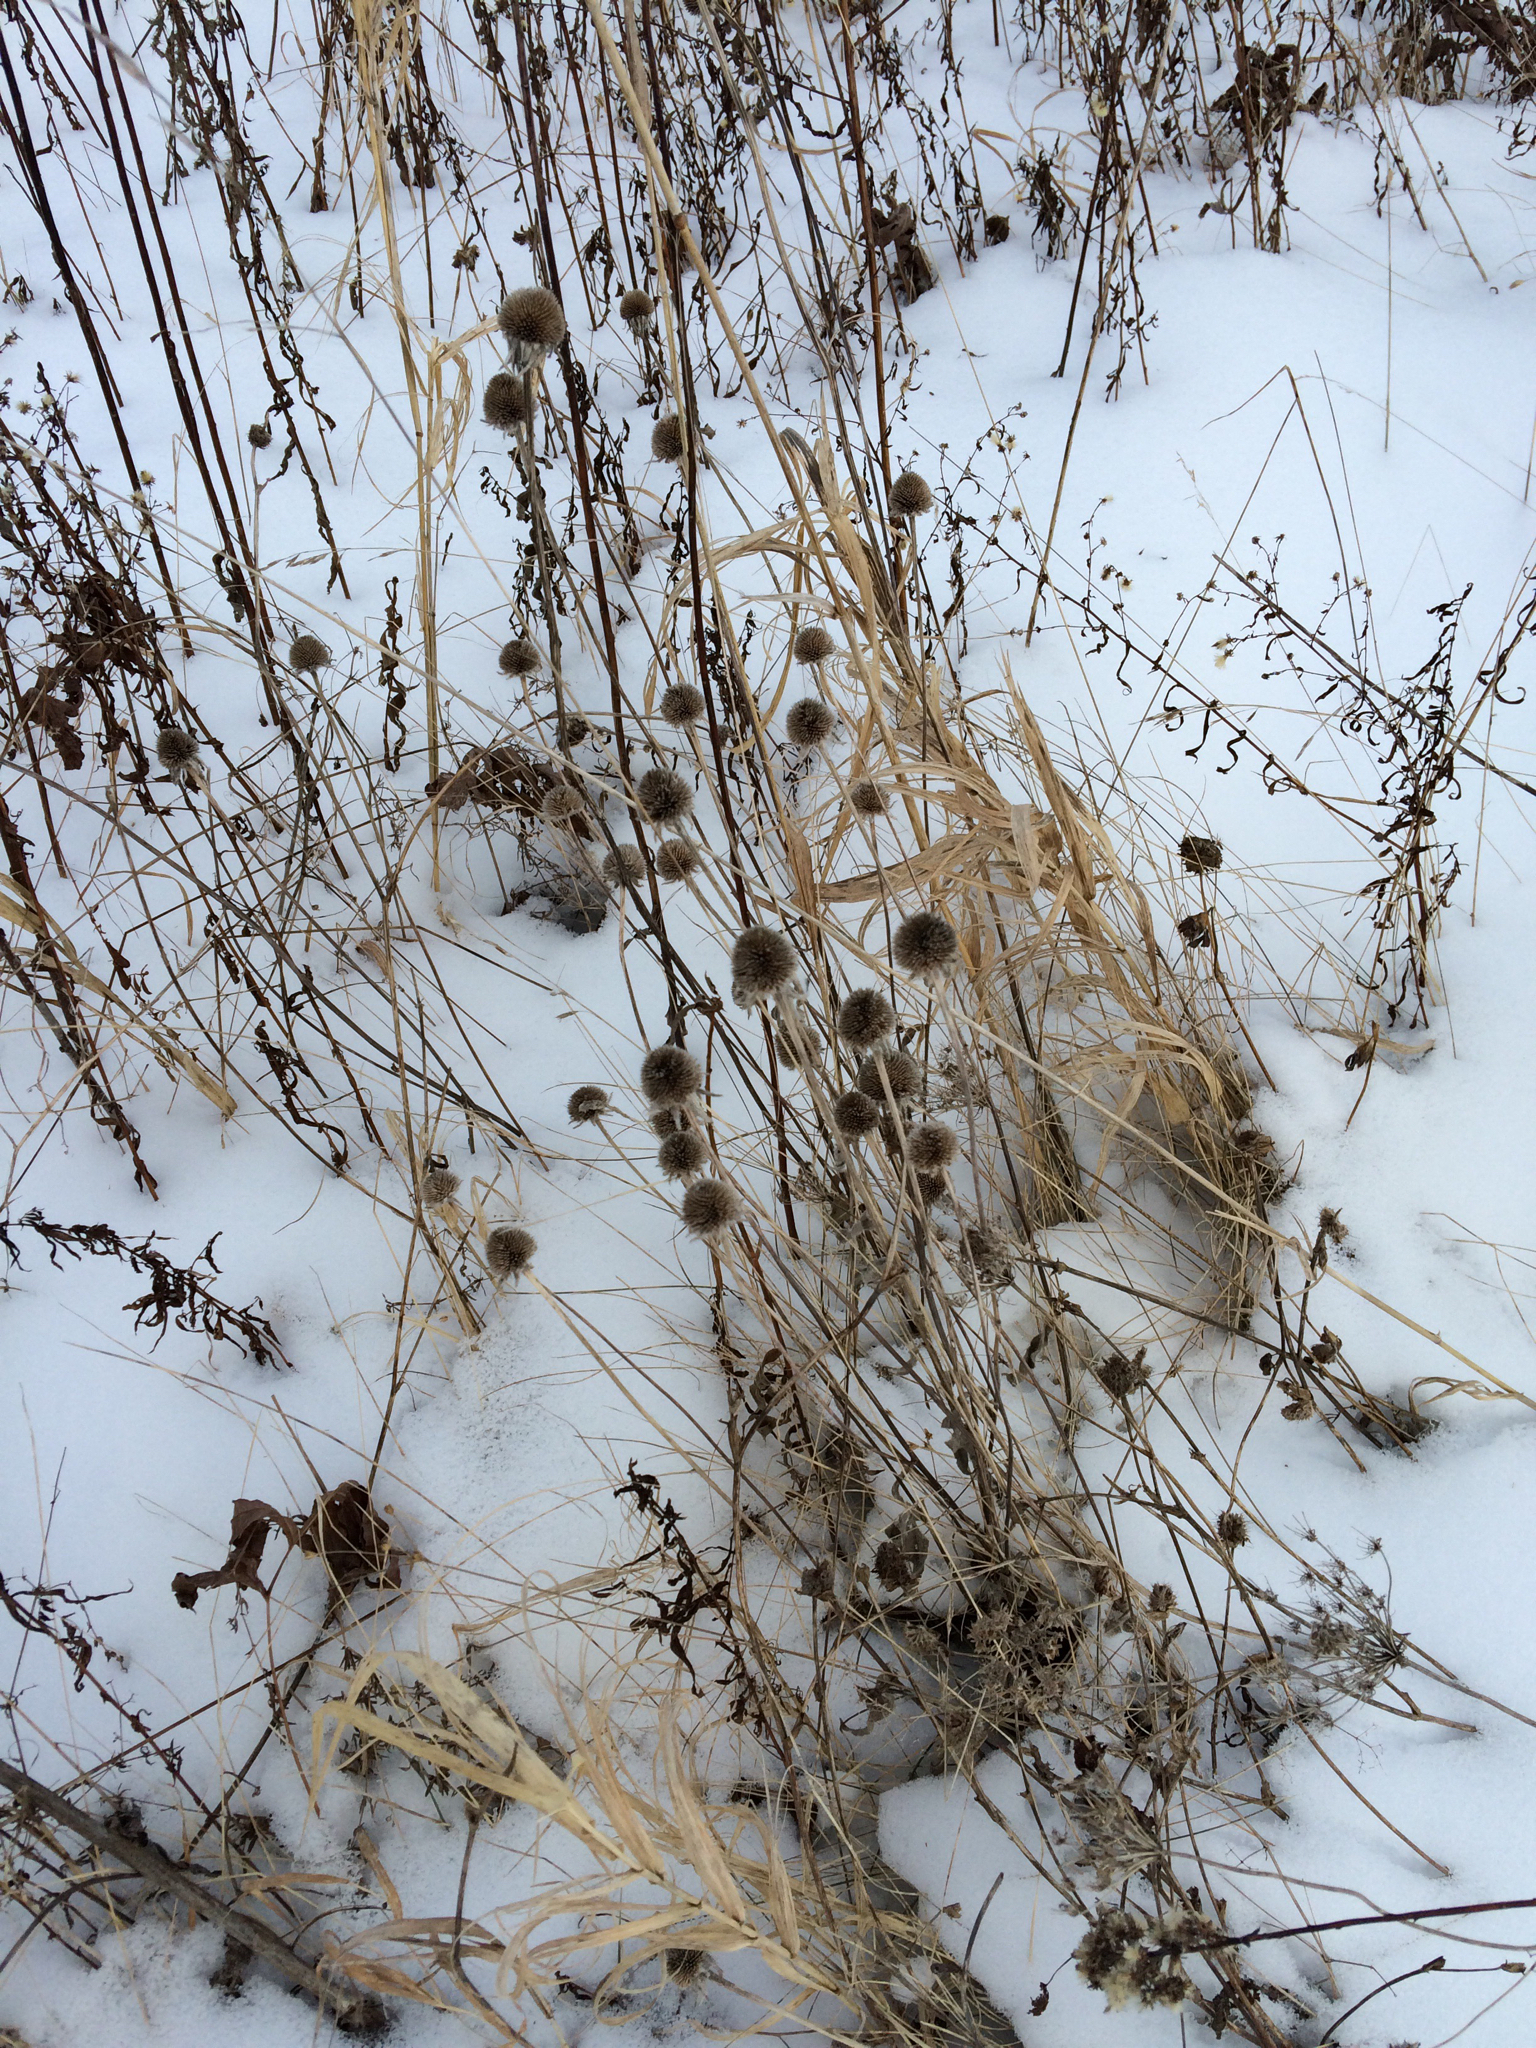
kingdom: Plantae
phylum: Tracheophyta
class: Magnoliopsida
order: Asterales
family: Asteraceae
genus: Rudbeckia
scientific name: Rudbeckia hirta
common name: Black-eyed-susan
